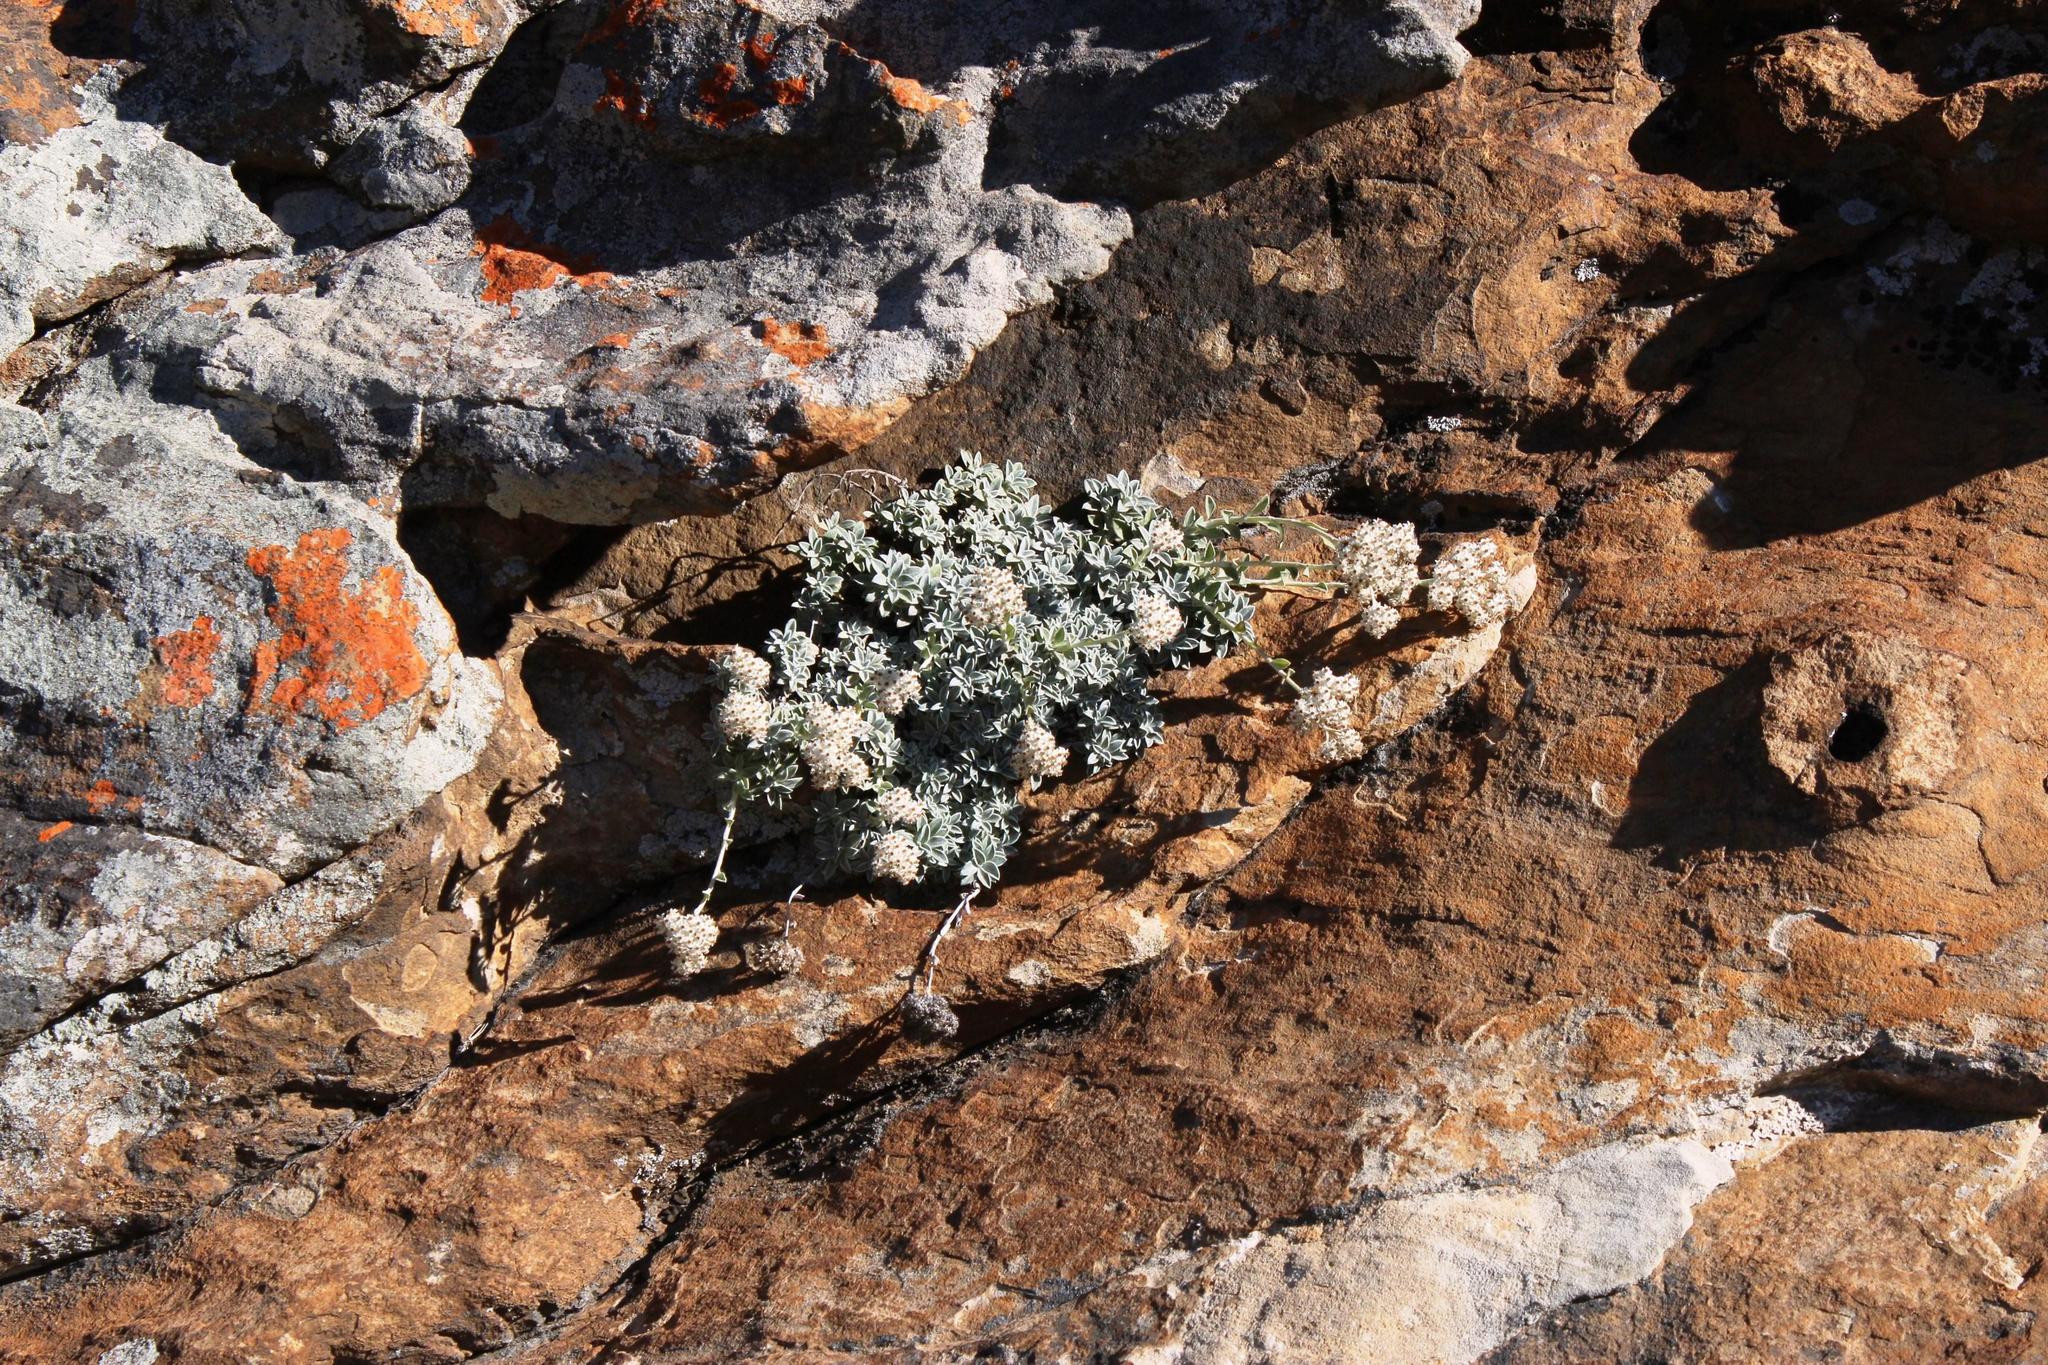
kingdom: Plantae
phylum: Tracheophyta
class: Magnoliopsida
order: Asterales
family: Asteraceae
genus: Helichrysum
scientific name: Helichrysum confertum
